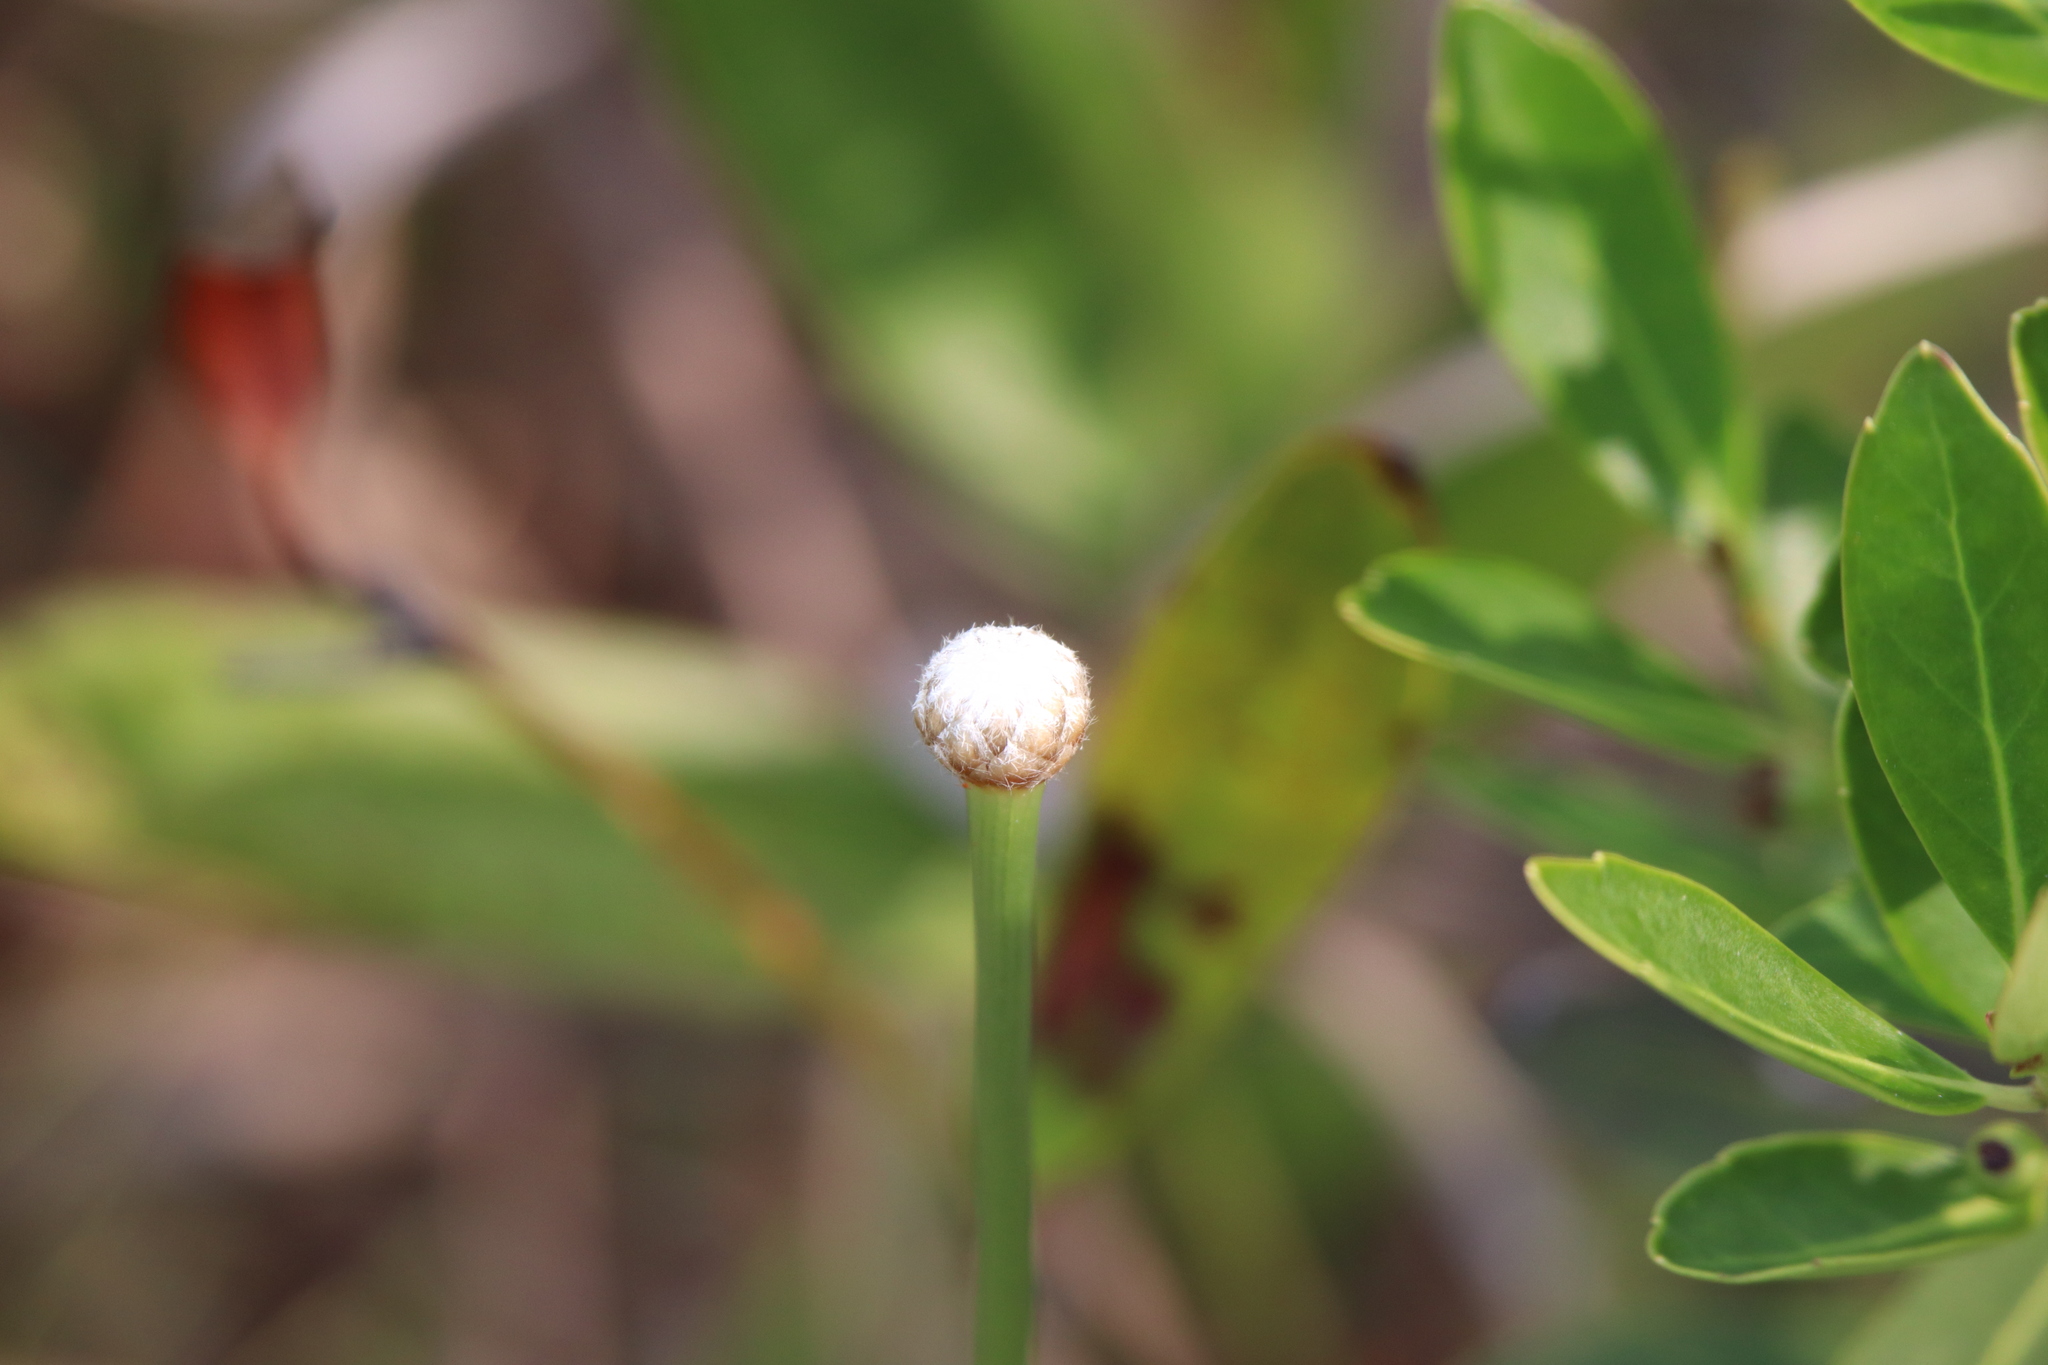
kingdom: Plantae
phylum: Tracheophyta
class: Liliopsida
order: Poales
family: Eriocaulaceae
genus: Eriocaulon
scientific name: Eriocaulon decangulare
